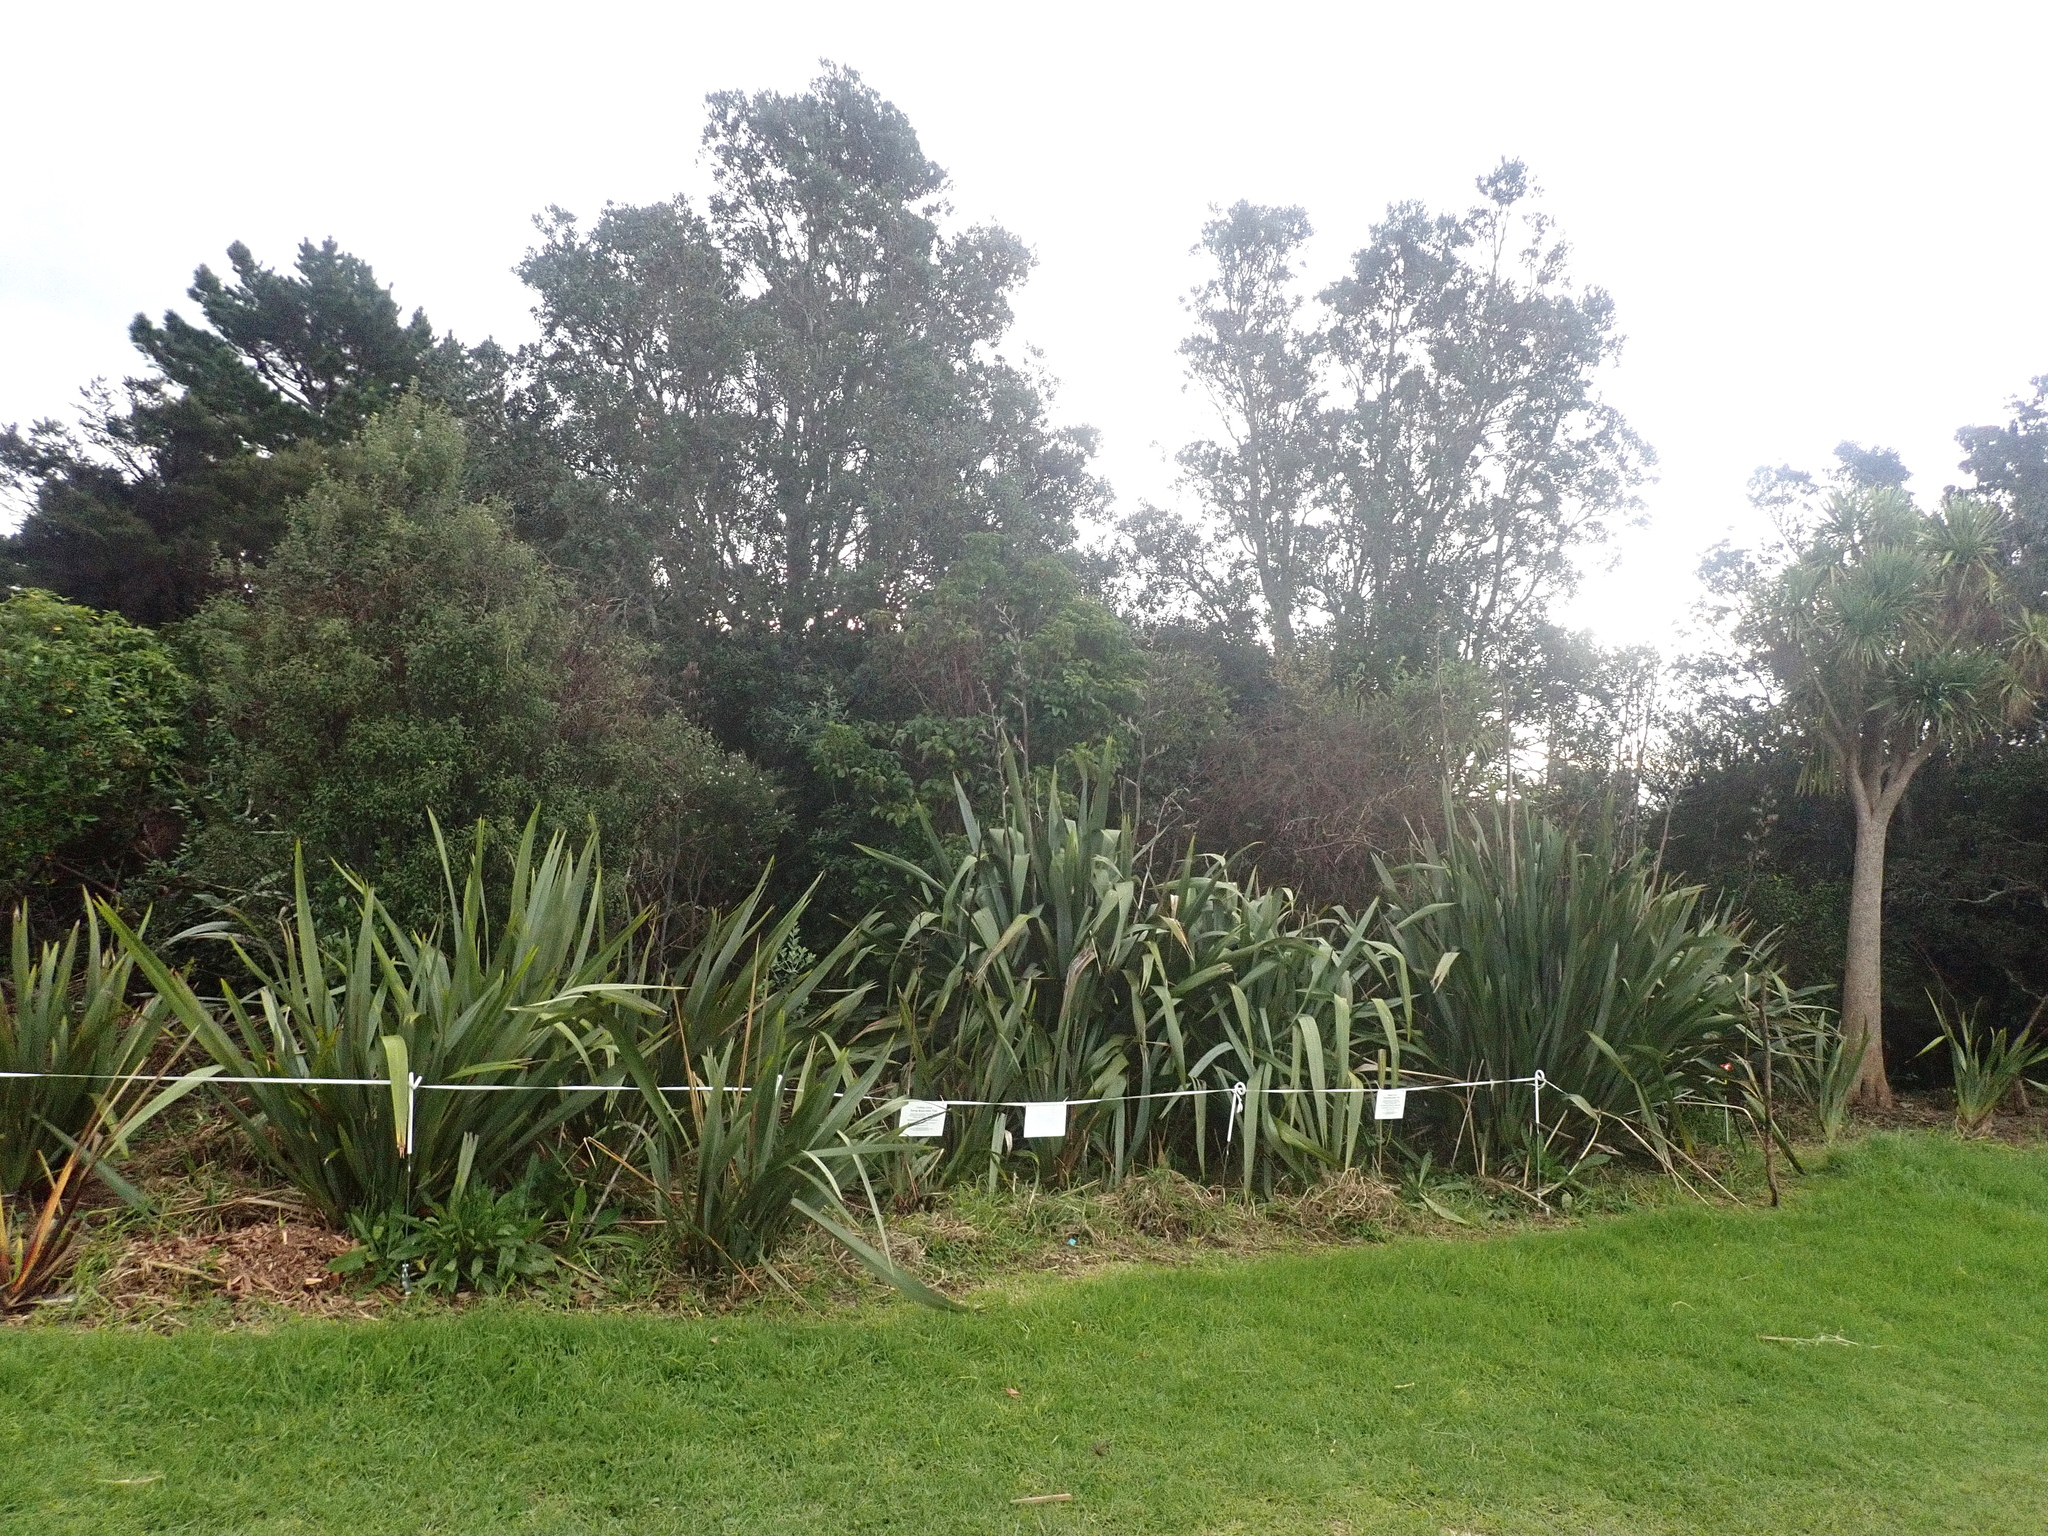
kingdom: Plantae
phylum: Tracheophyta
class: Liliopsida
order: Poales
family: Poaceae
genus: Cenchrus
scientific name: Cenchrus clandestinus
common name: Kikuyugrass
